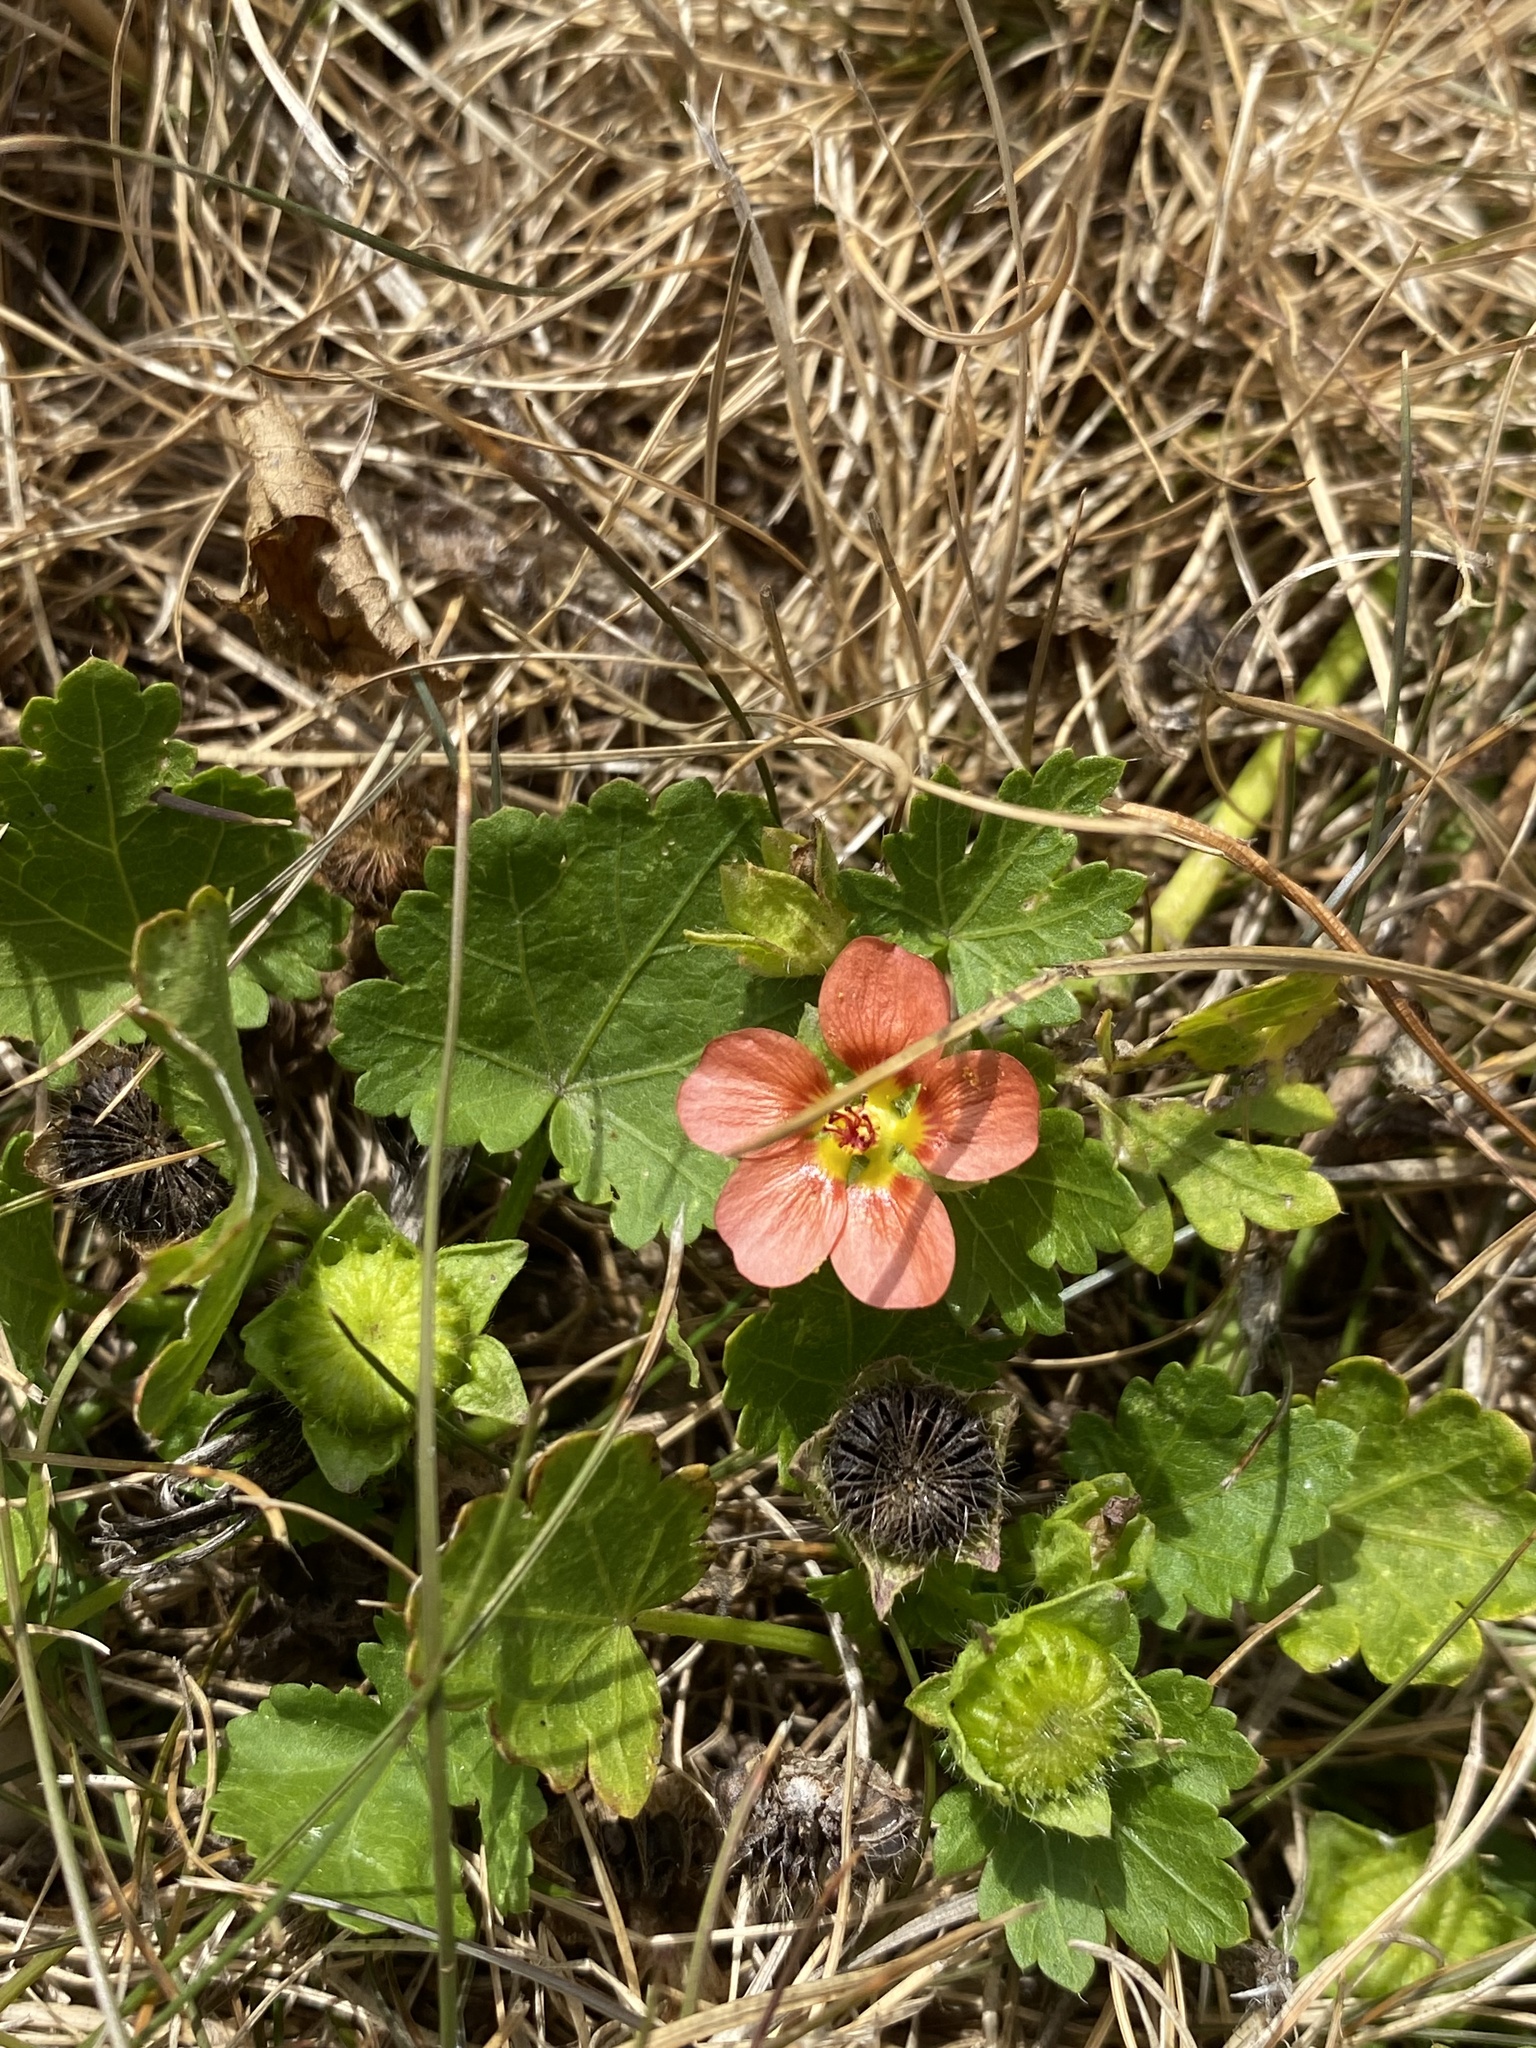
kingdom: Plantae
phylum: Tracheophyta
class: Magnoliopsida
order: Malvales
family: Malvaceae
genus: Modiola
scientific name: Modiola caroliniana
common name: Carolina bristlemallow
